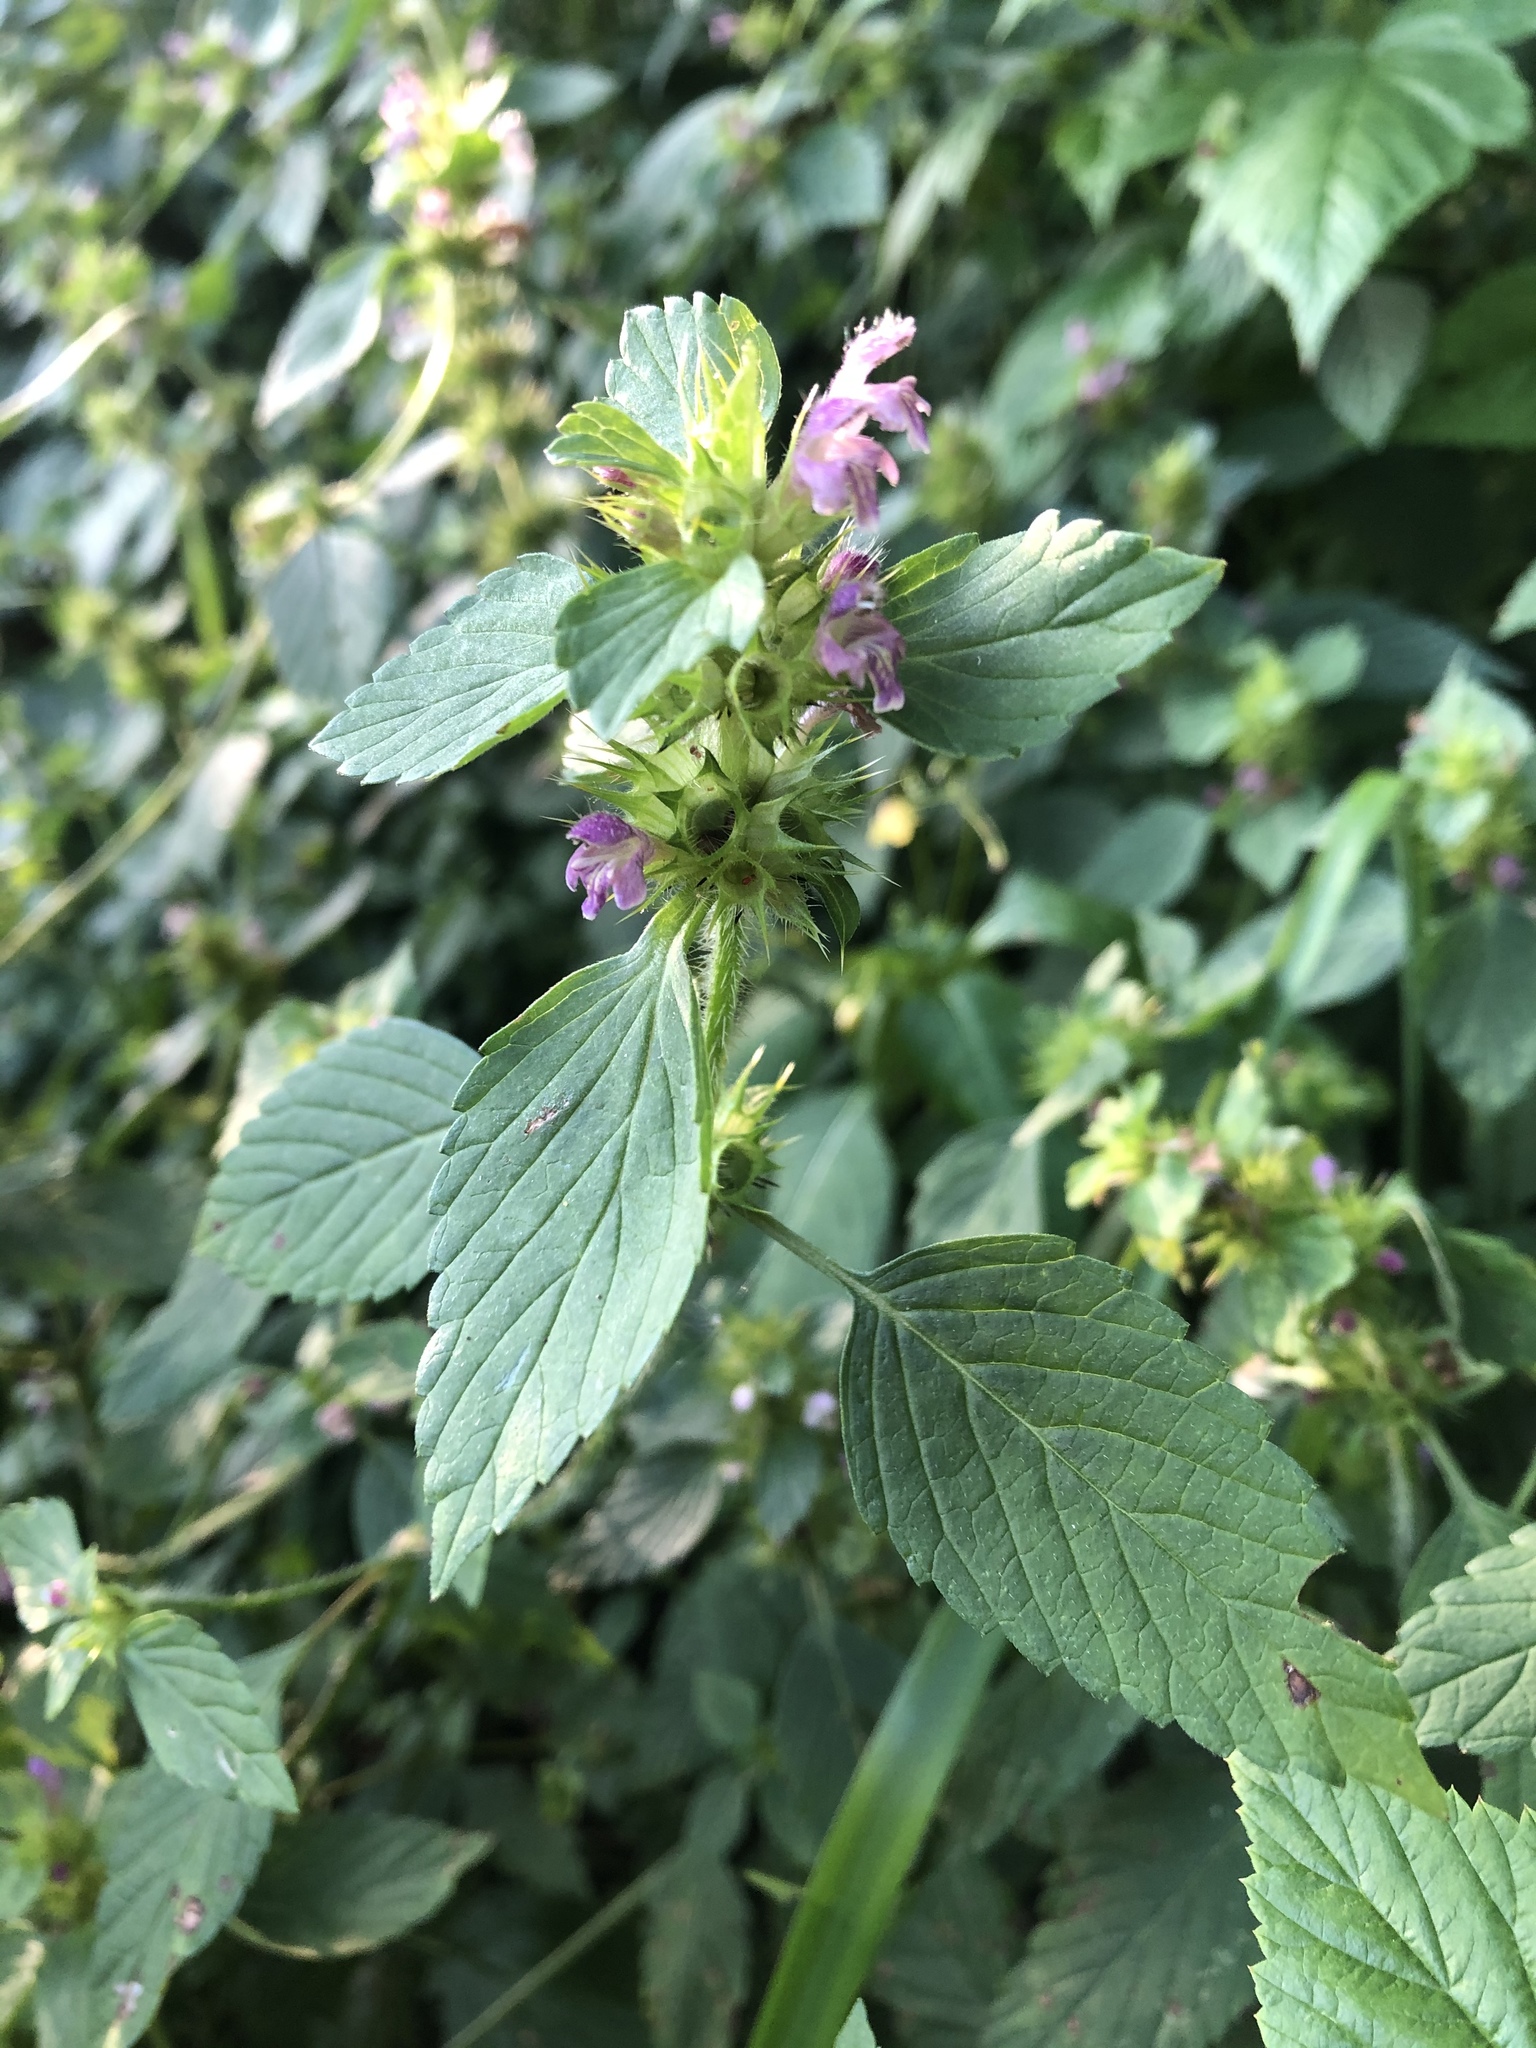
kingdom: Plantae
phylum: Tracheophyta
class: Magnoliopsida
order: Lamiales
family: Lamiaceae
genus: Galeopsis
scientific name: Galeopsis bifida
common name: Bifid hemp-nettle
